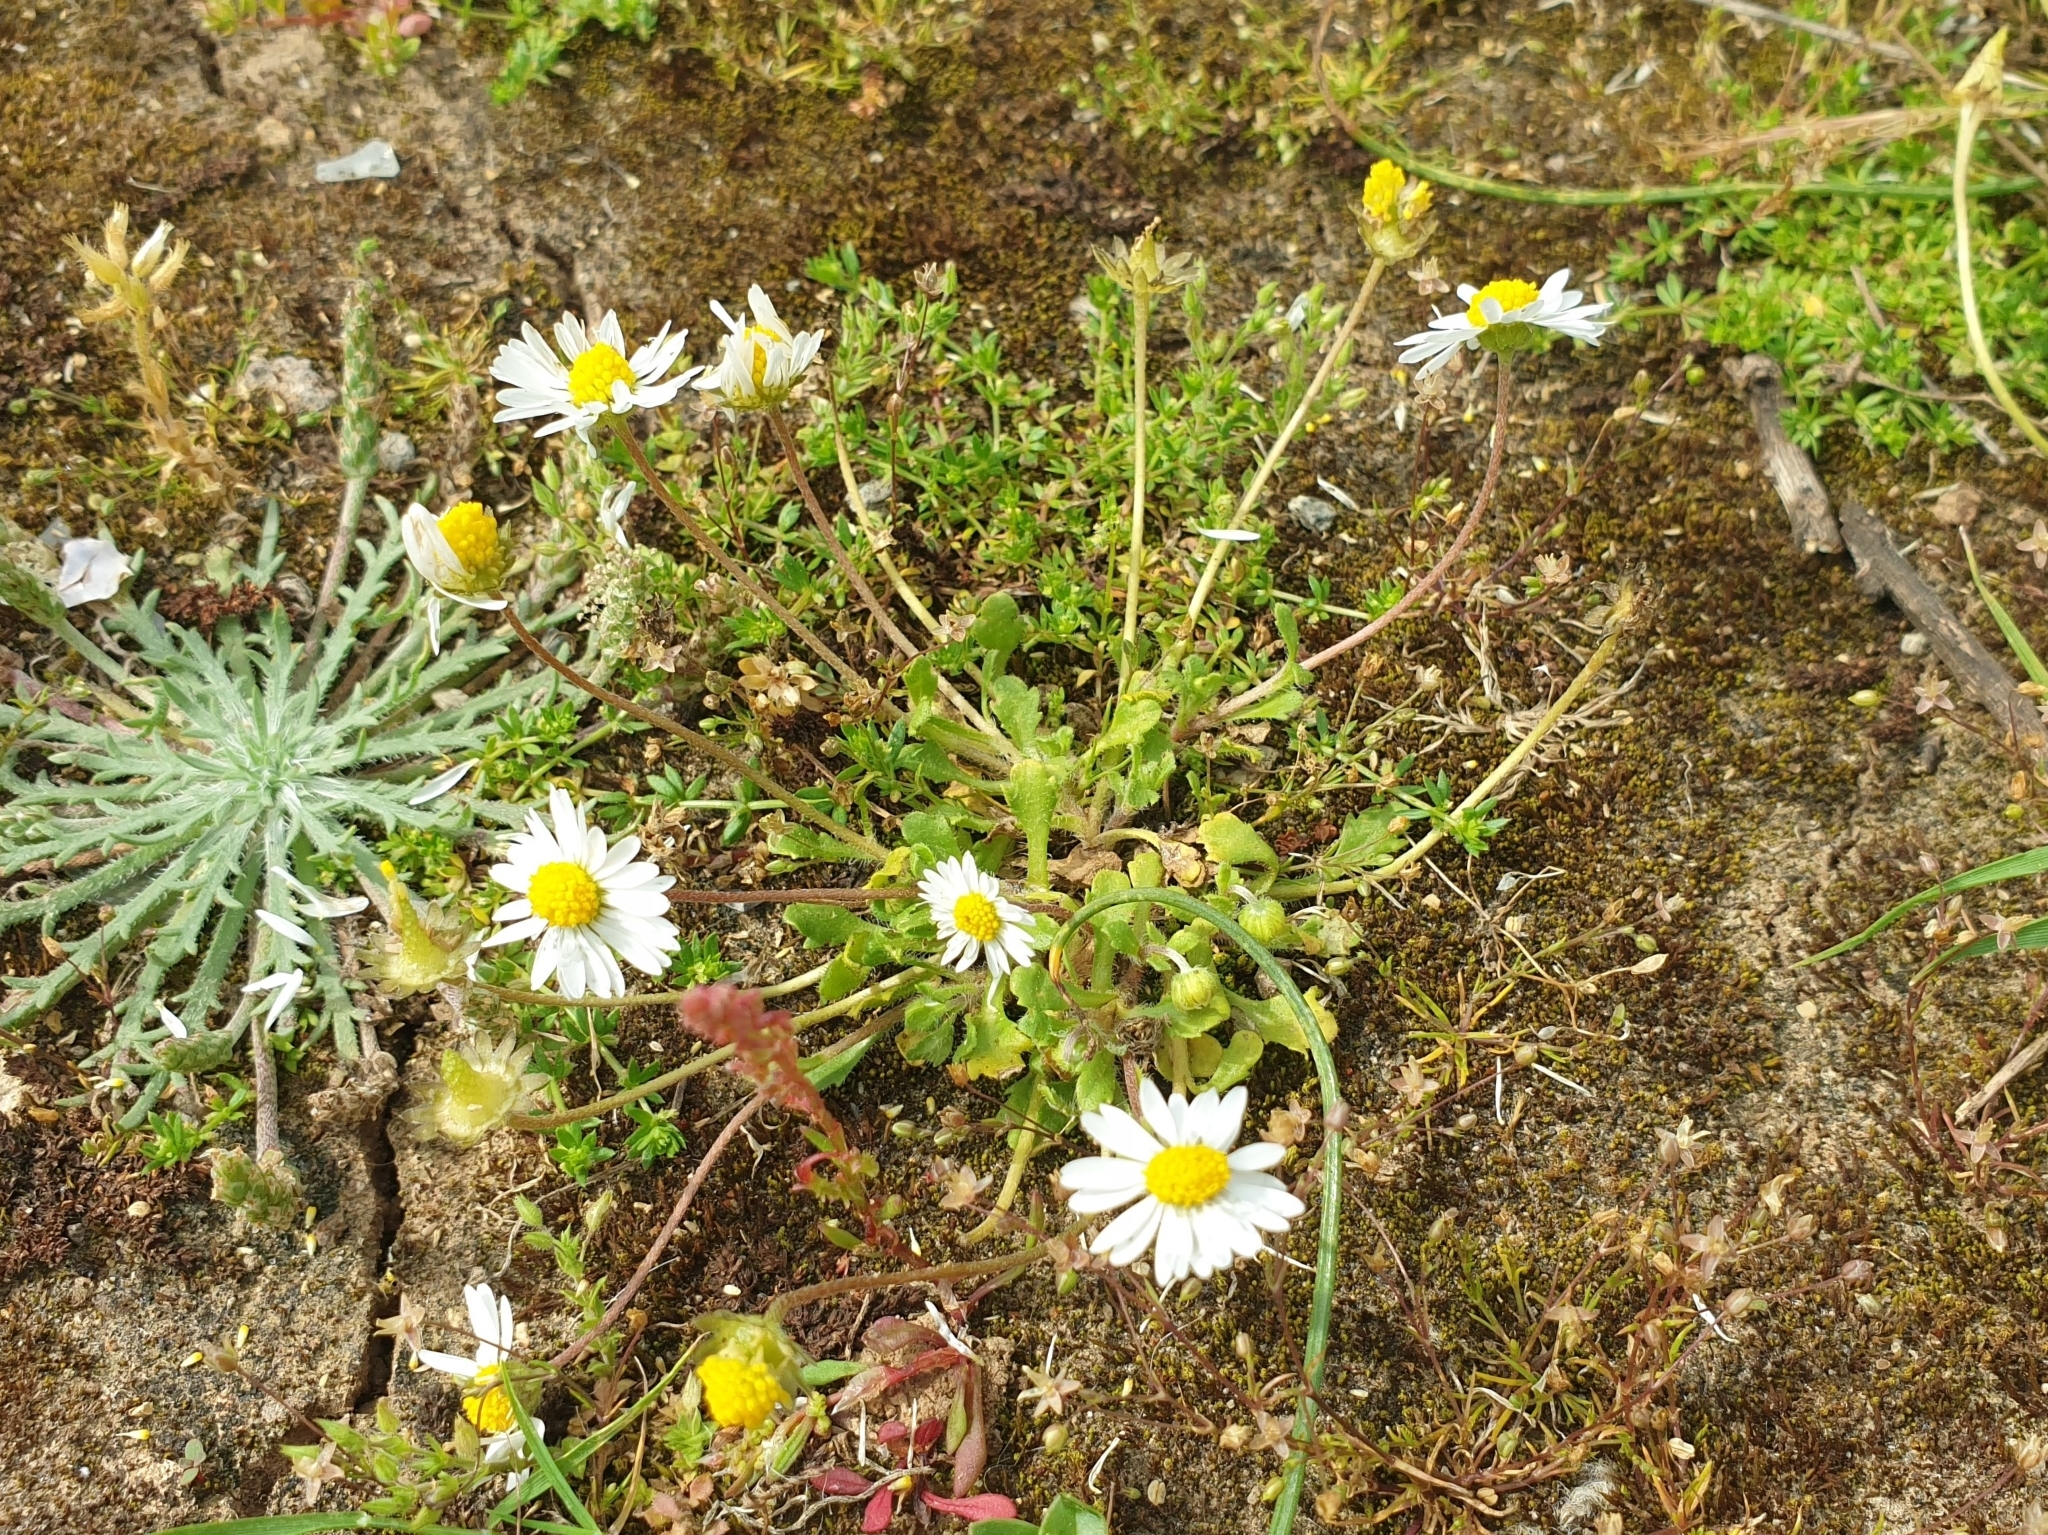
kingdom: Plantae
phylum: Tracheophyta
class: Magnoliopsida
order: Asterales
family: Asteraceae
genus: Bellis
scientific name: Bellis annua
